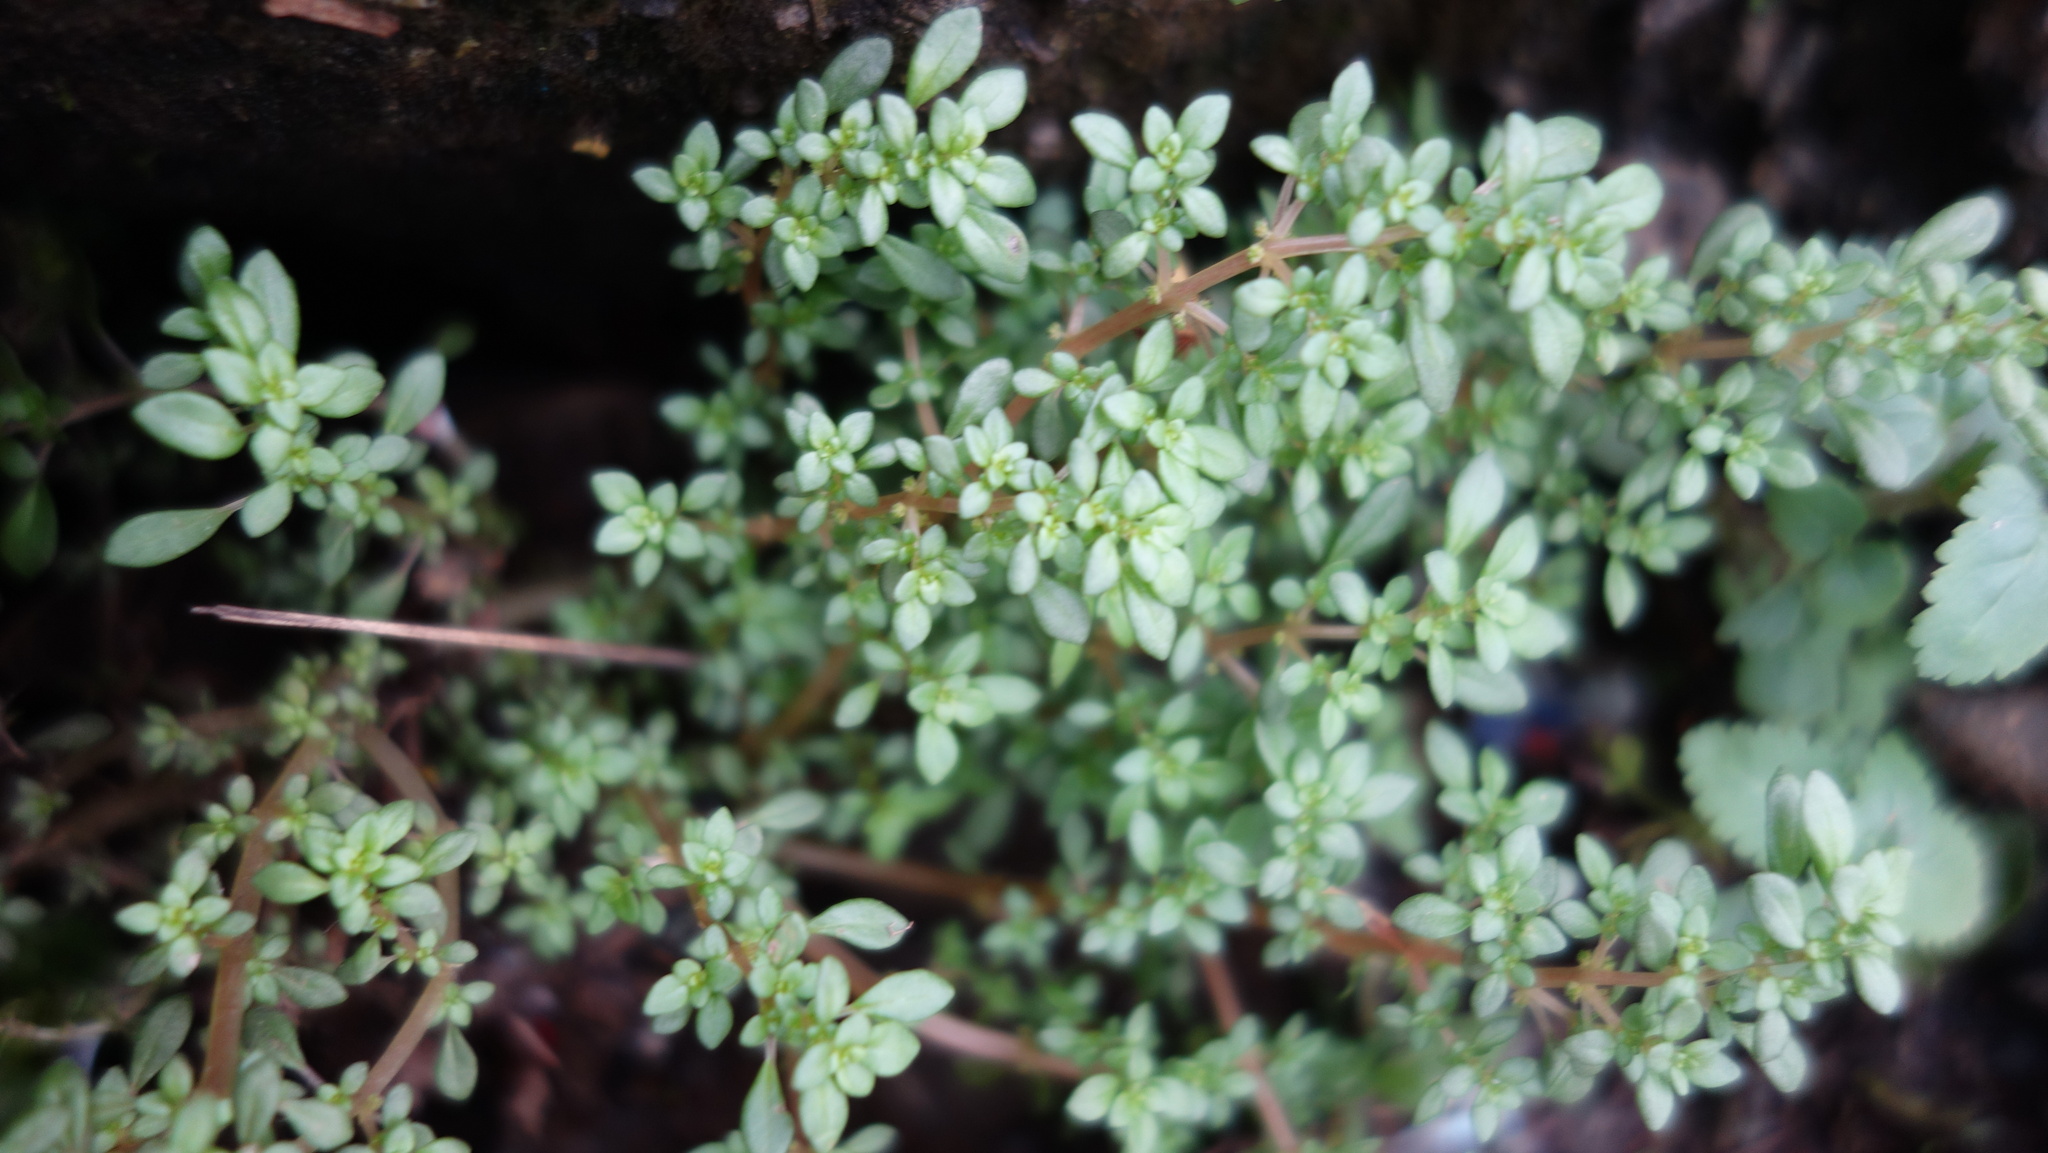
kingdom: Plantae
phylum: Tracheophyta
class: Magnoliopsida
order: Rosales
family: Urticaceae
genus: Pilea
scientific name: Pilea microphylla
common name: Artillery-plant
